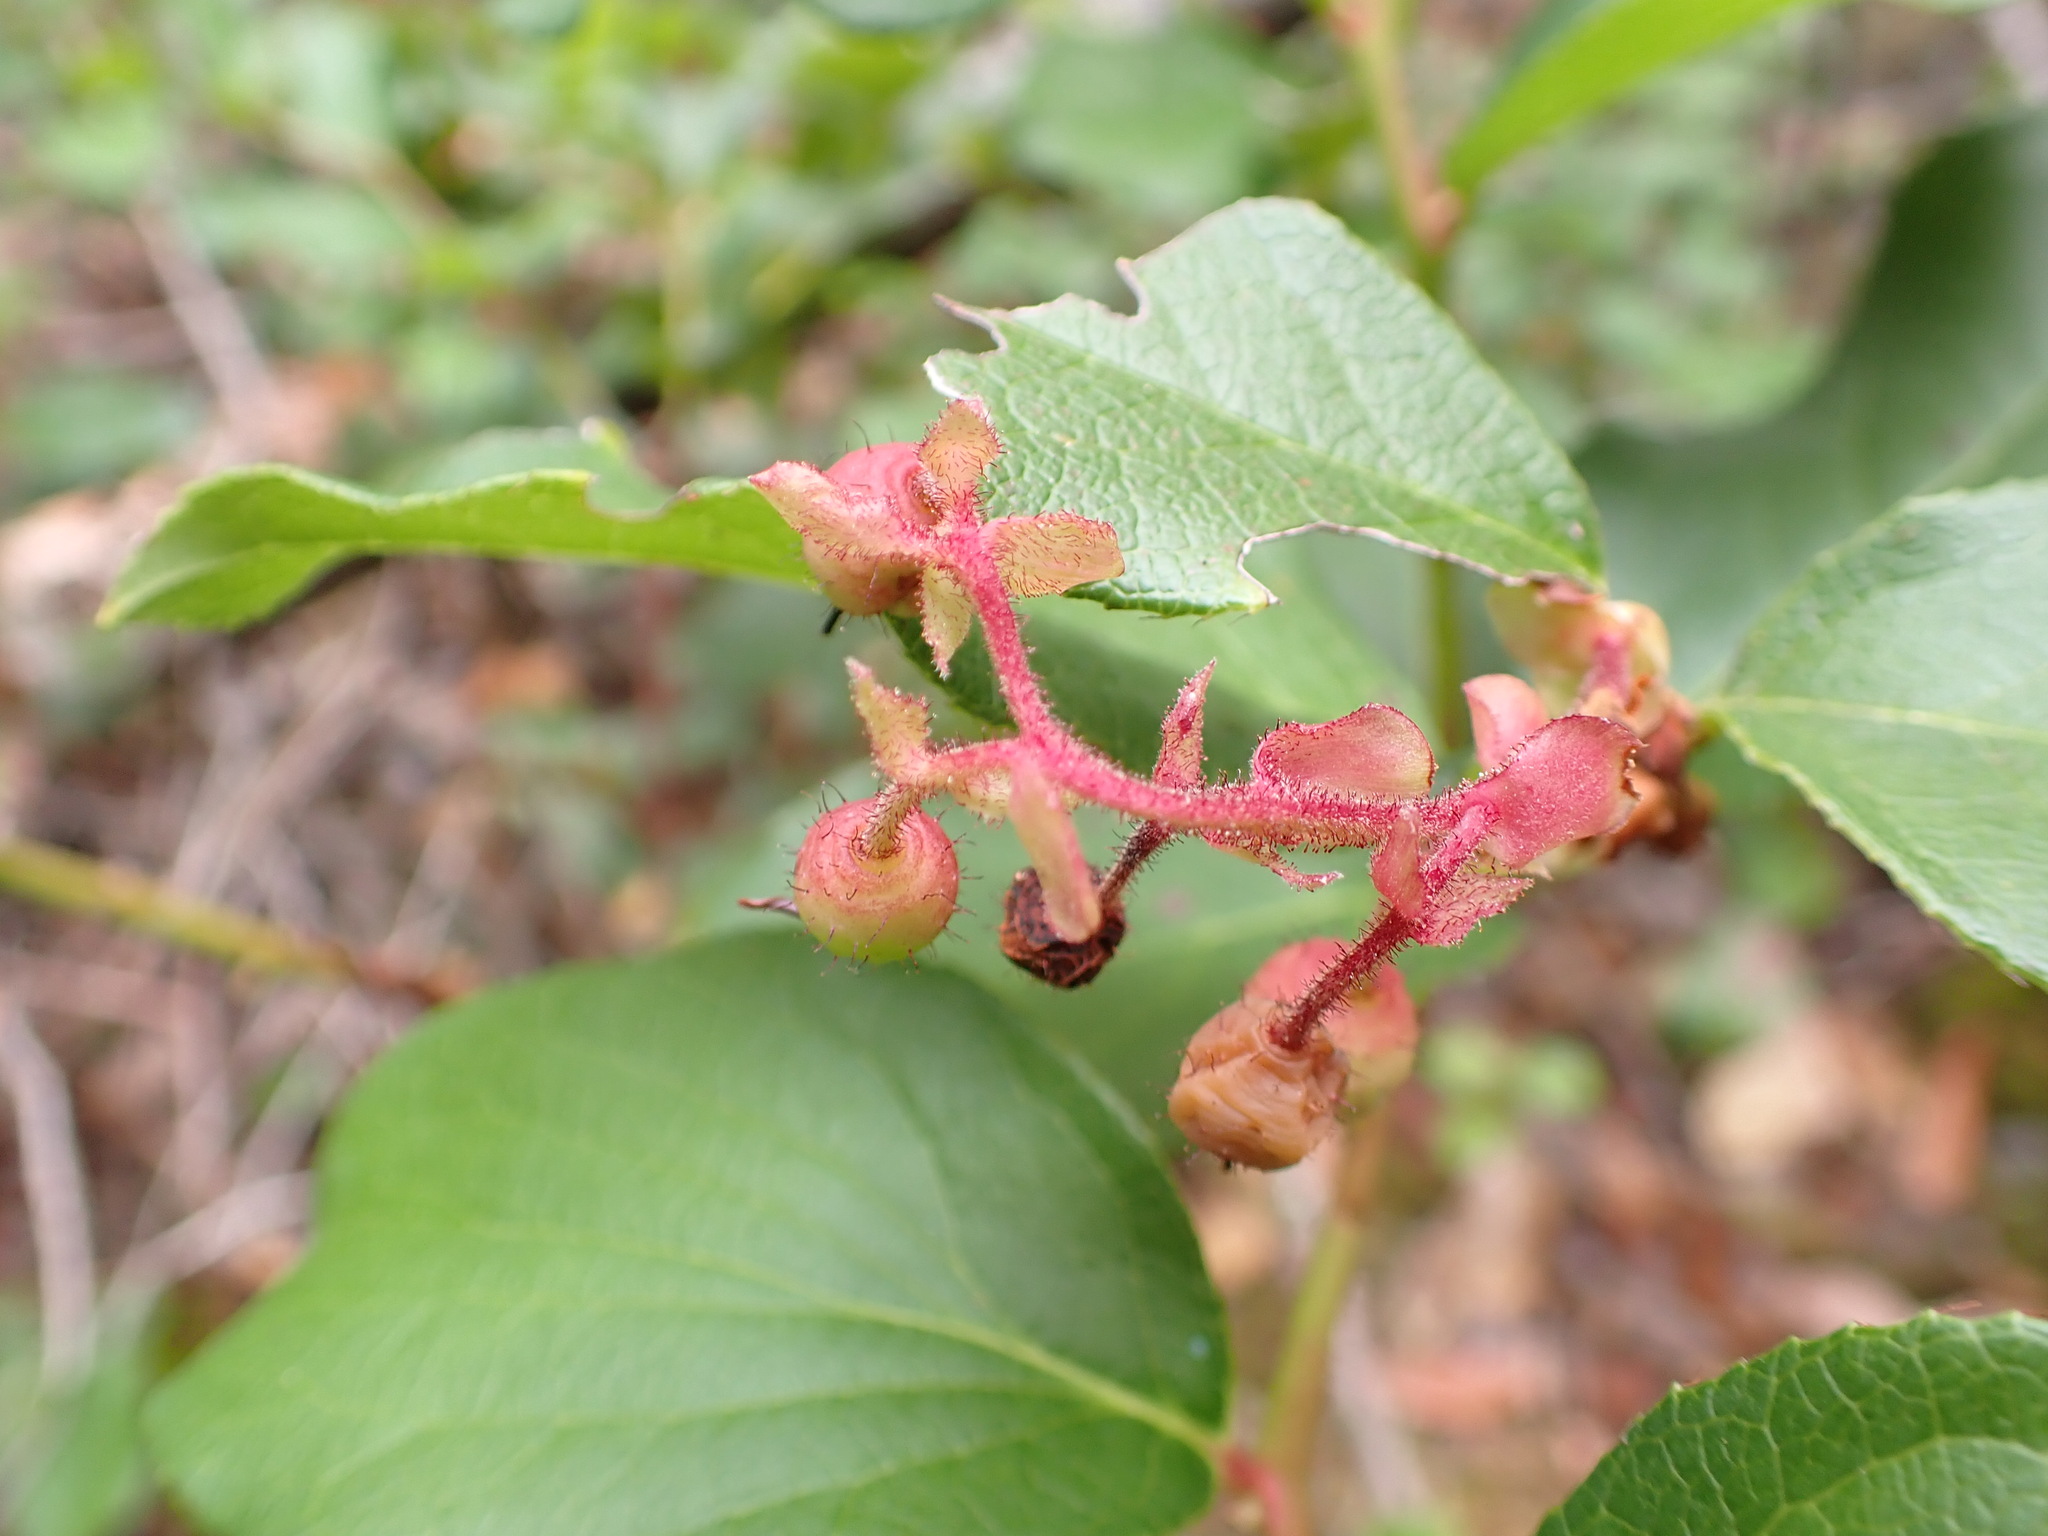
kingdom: Plantae
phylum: Tracheophyta
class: Magnoliopsida
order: Ericales
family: Ericaceae
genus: Gaultheria
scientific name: Gaultheria shallon
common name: Shallon
